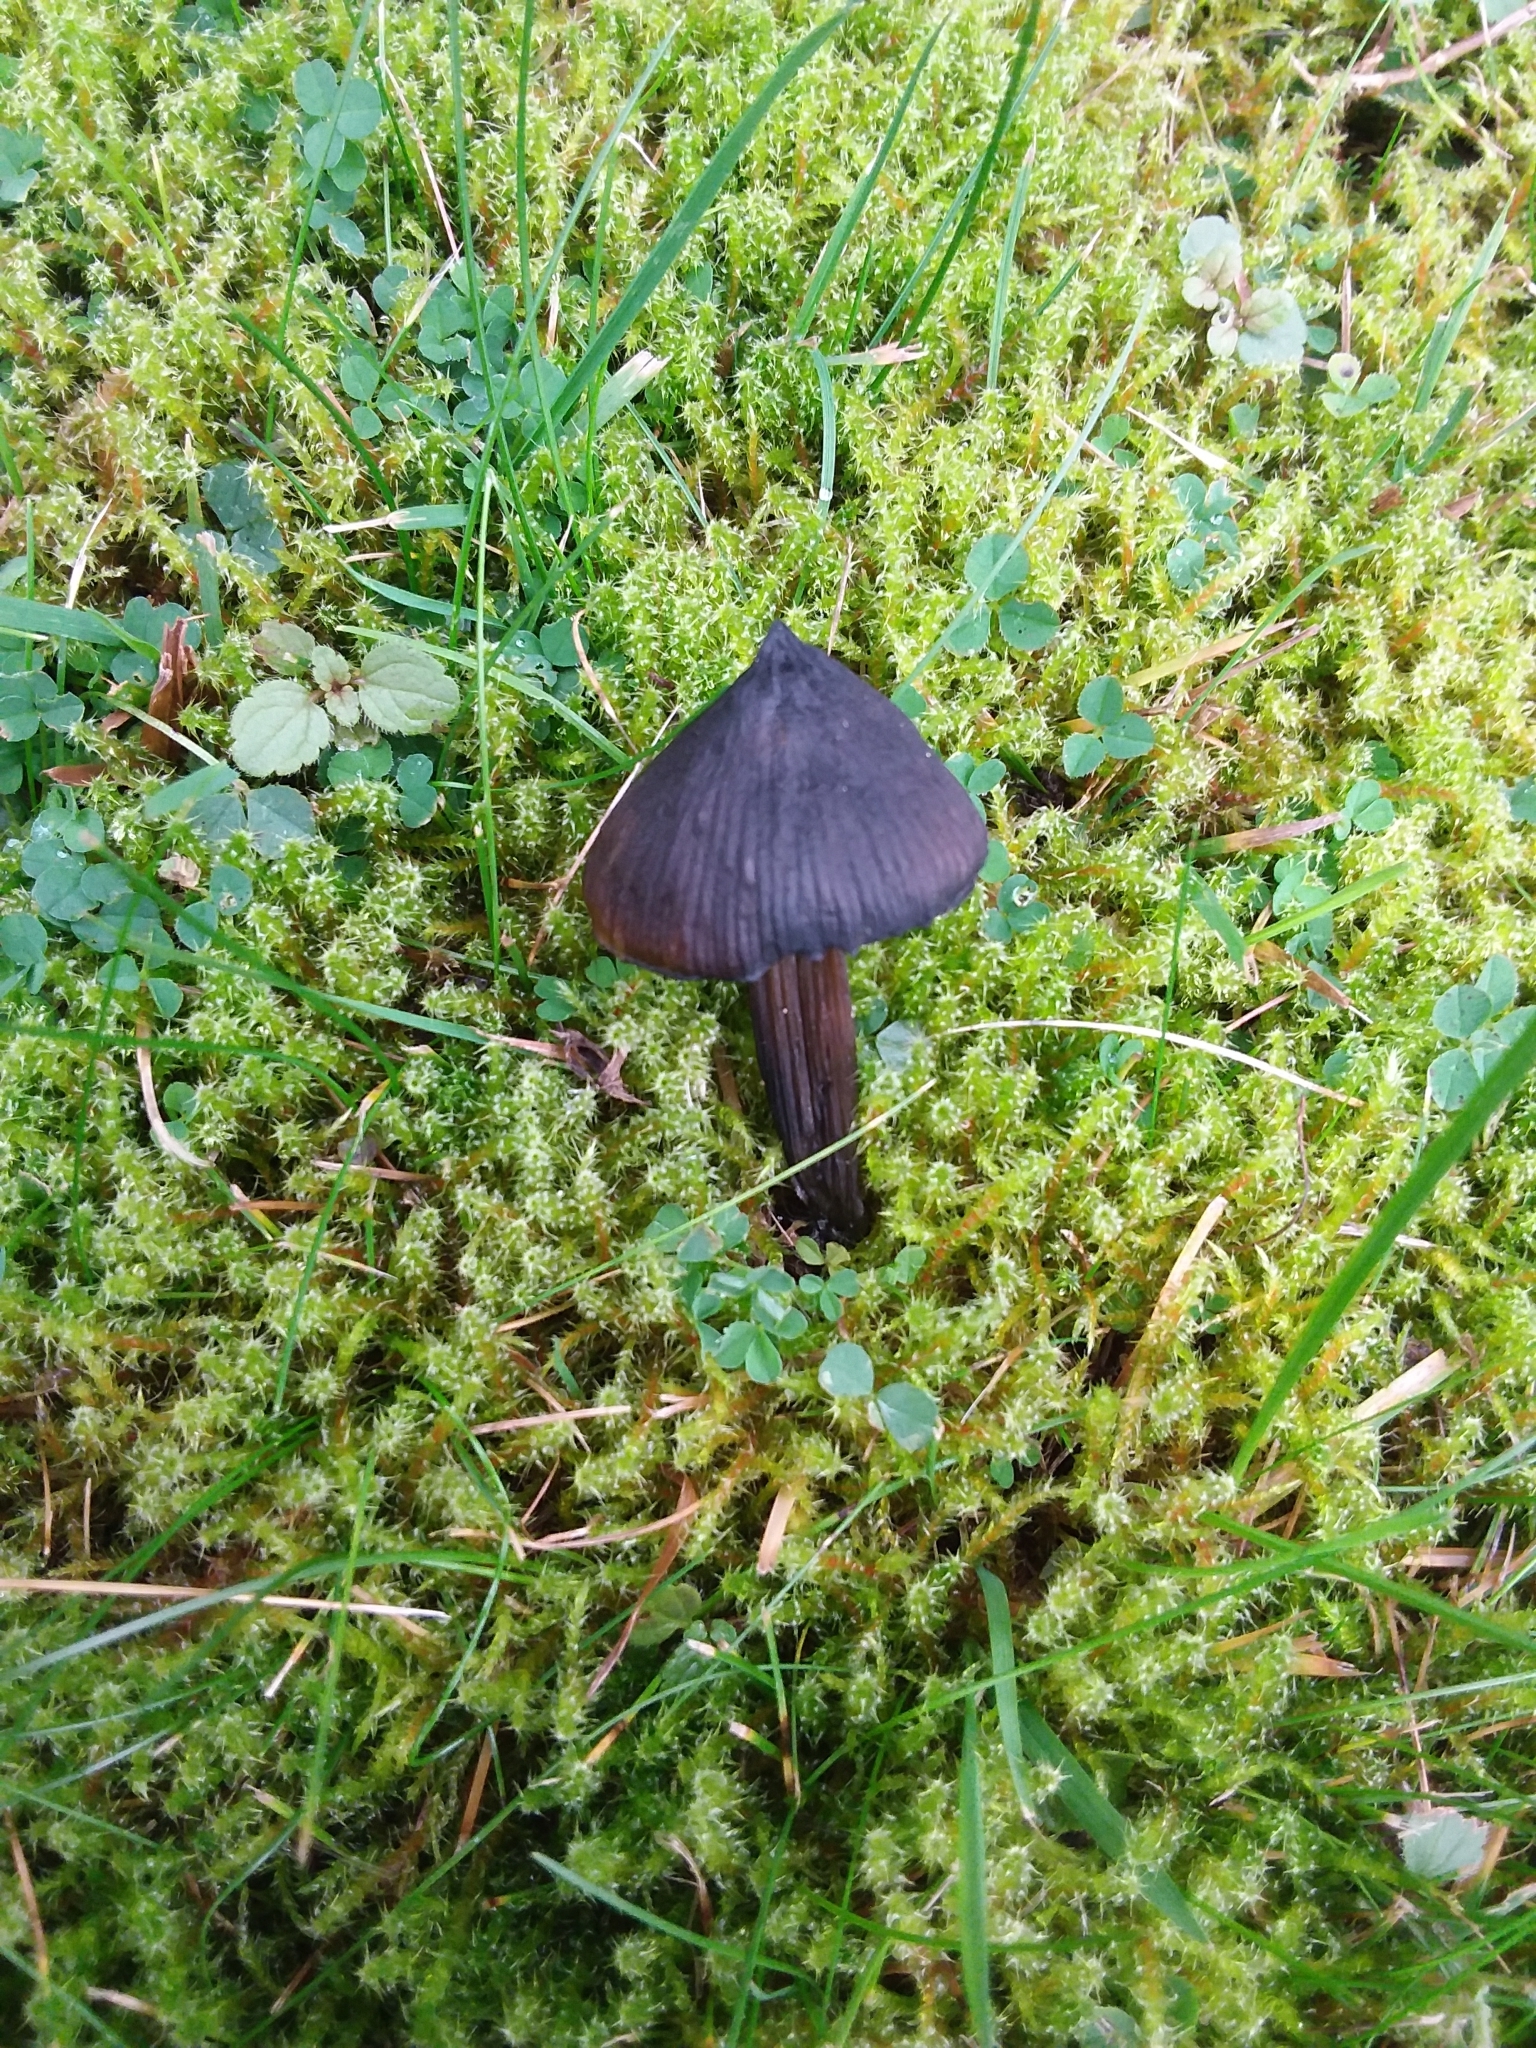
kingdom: Fungi
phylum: Basidiomycota
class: Agaricomycetes
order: Agaricales
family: Hygrophoraceae
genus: Hygrocybe
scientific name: Hygrocybe conica
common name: Blackening wax-cap
